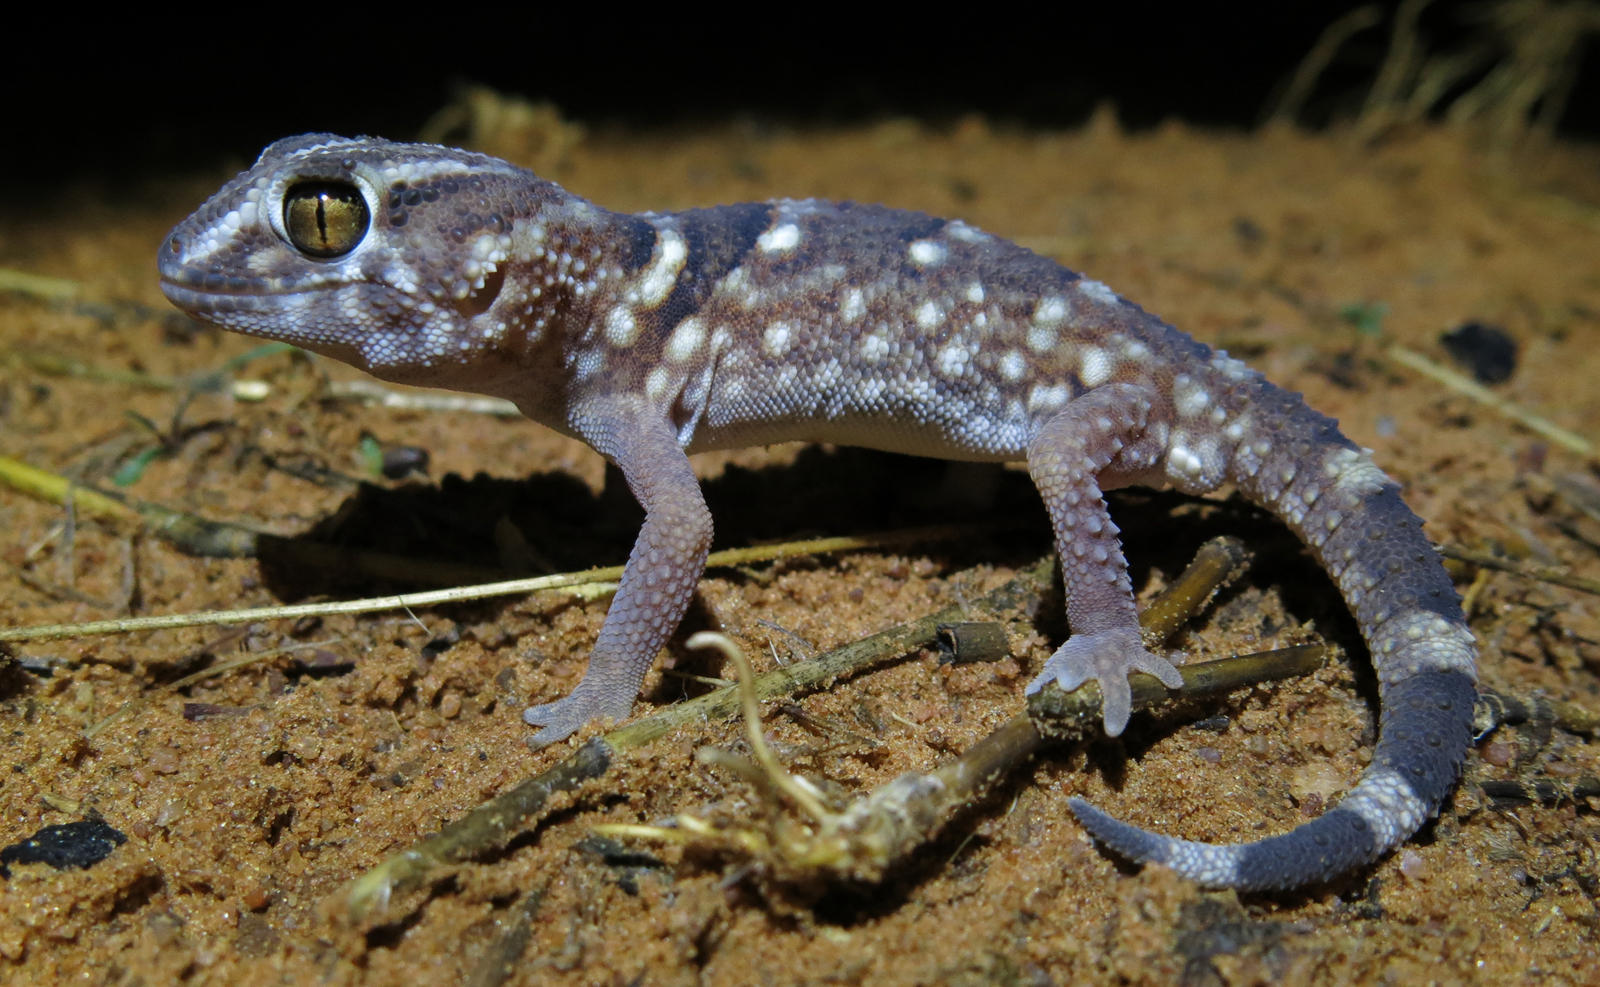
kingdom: Animalia
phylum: Chordata
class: Squamata
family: Gekkonidae
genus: Chondrodactylus
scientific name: Chondrodactylus angulifer
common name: Common giant ground gecko
